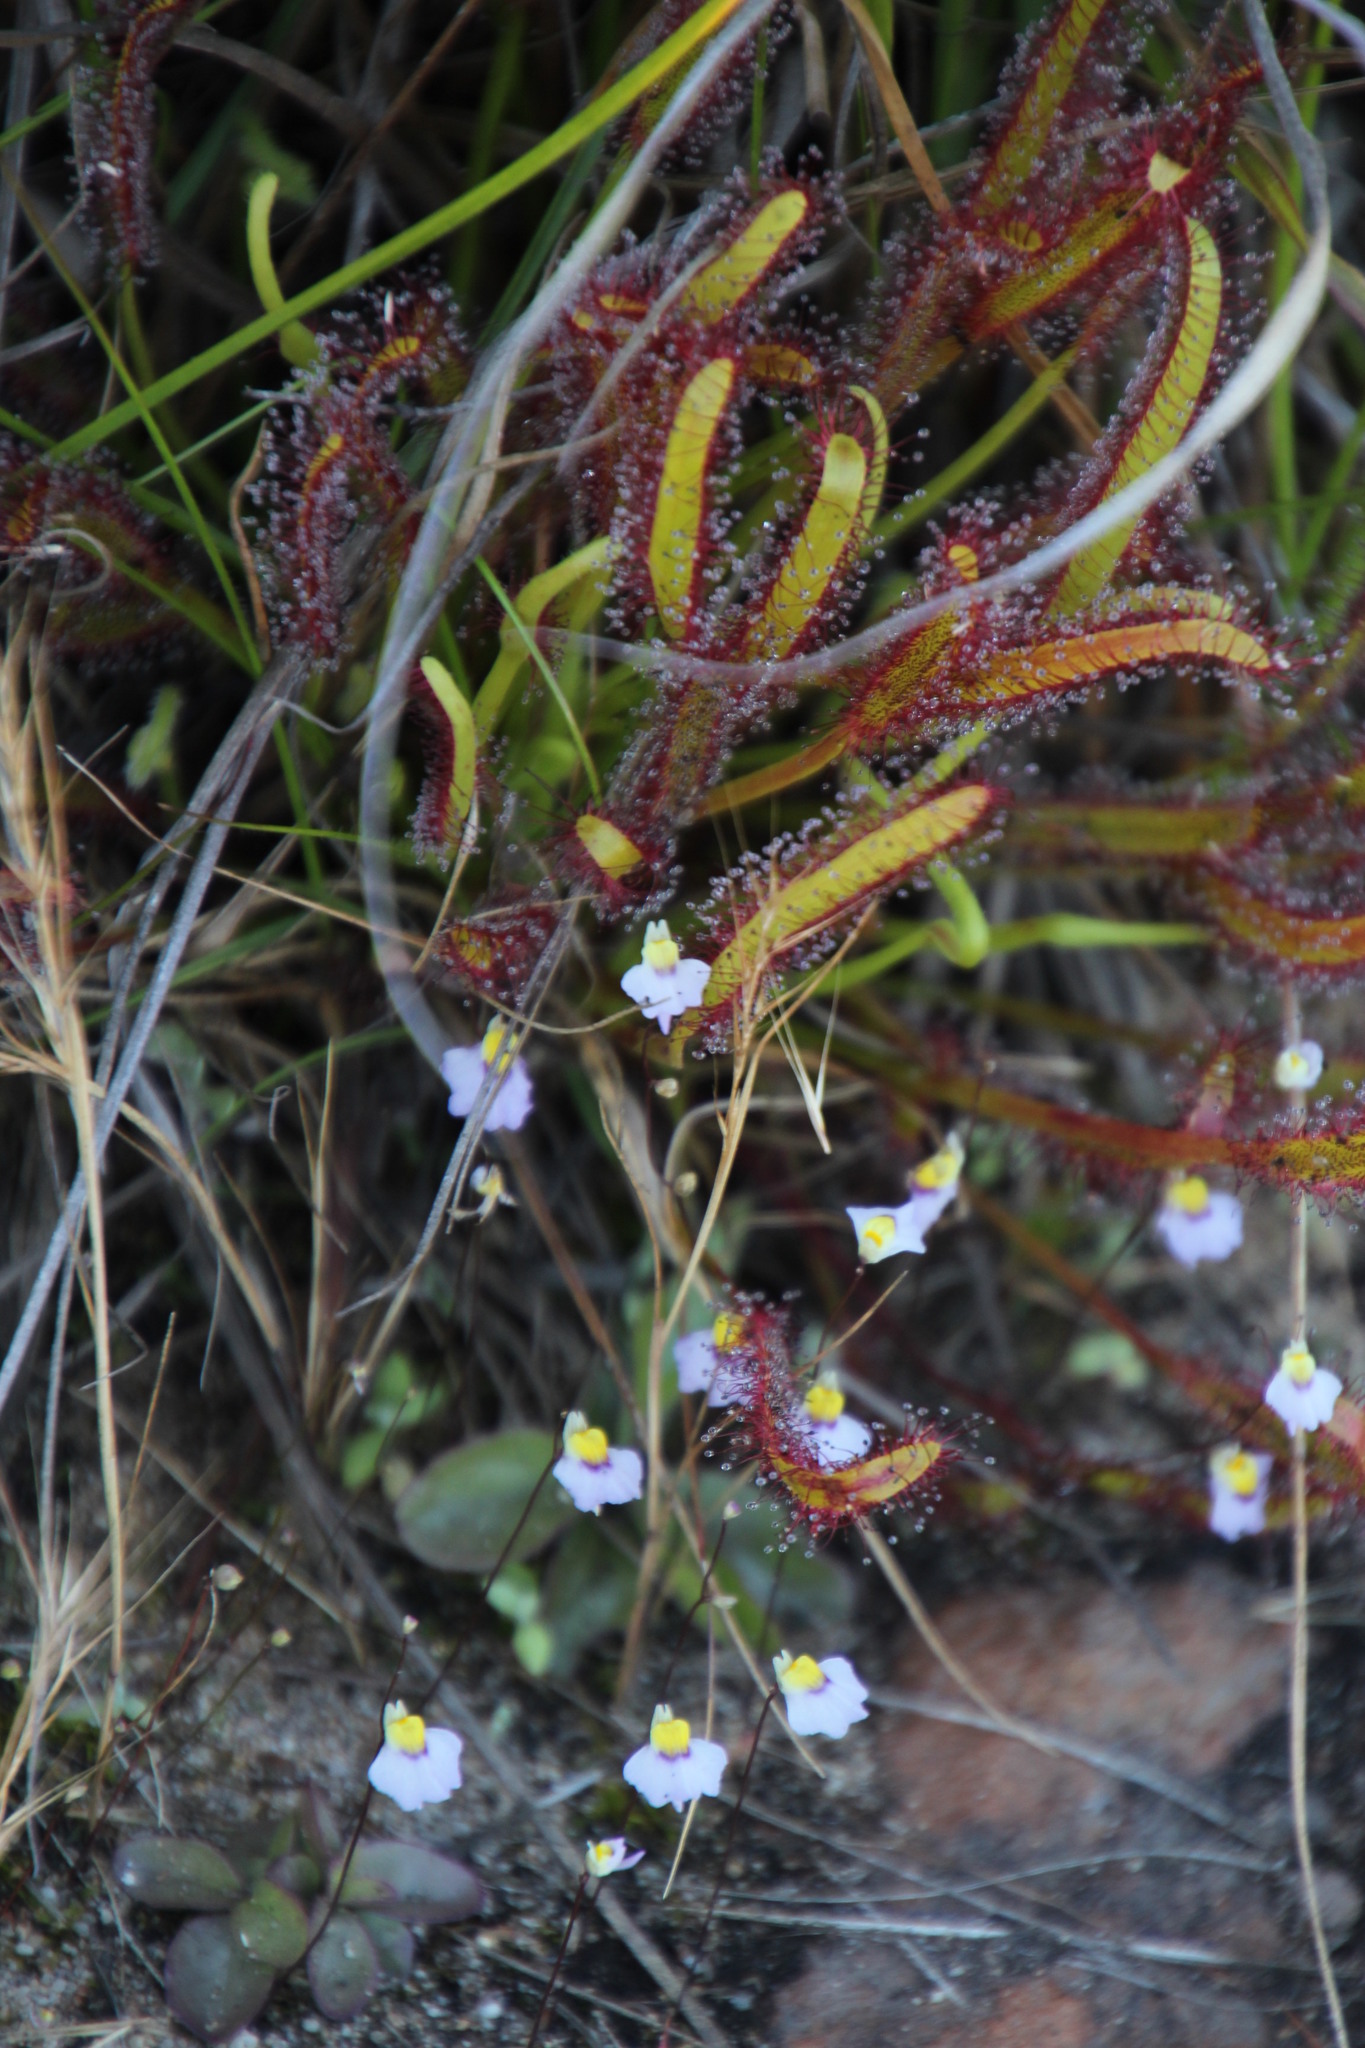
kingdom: Plantae
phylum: Tracheophyta
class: Magnoliopsida
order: Lamiales
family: Lentibulariaceae
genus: Utricularia
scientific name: Utricularia bisquamata
